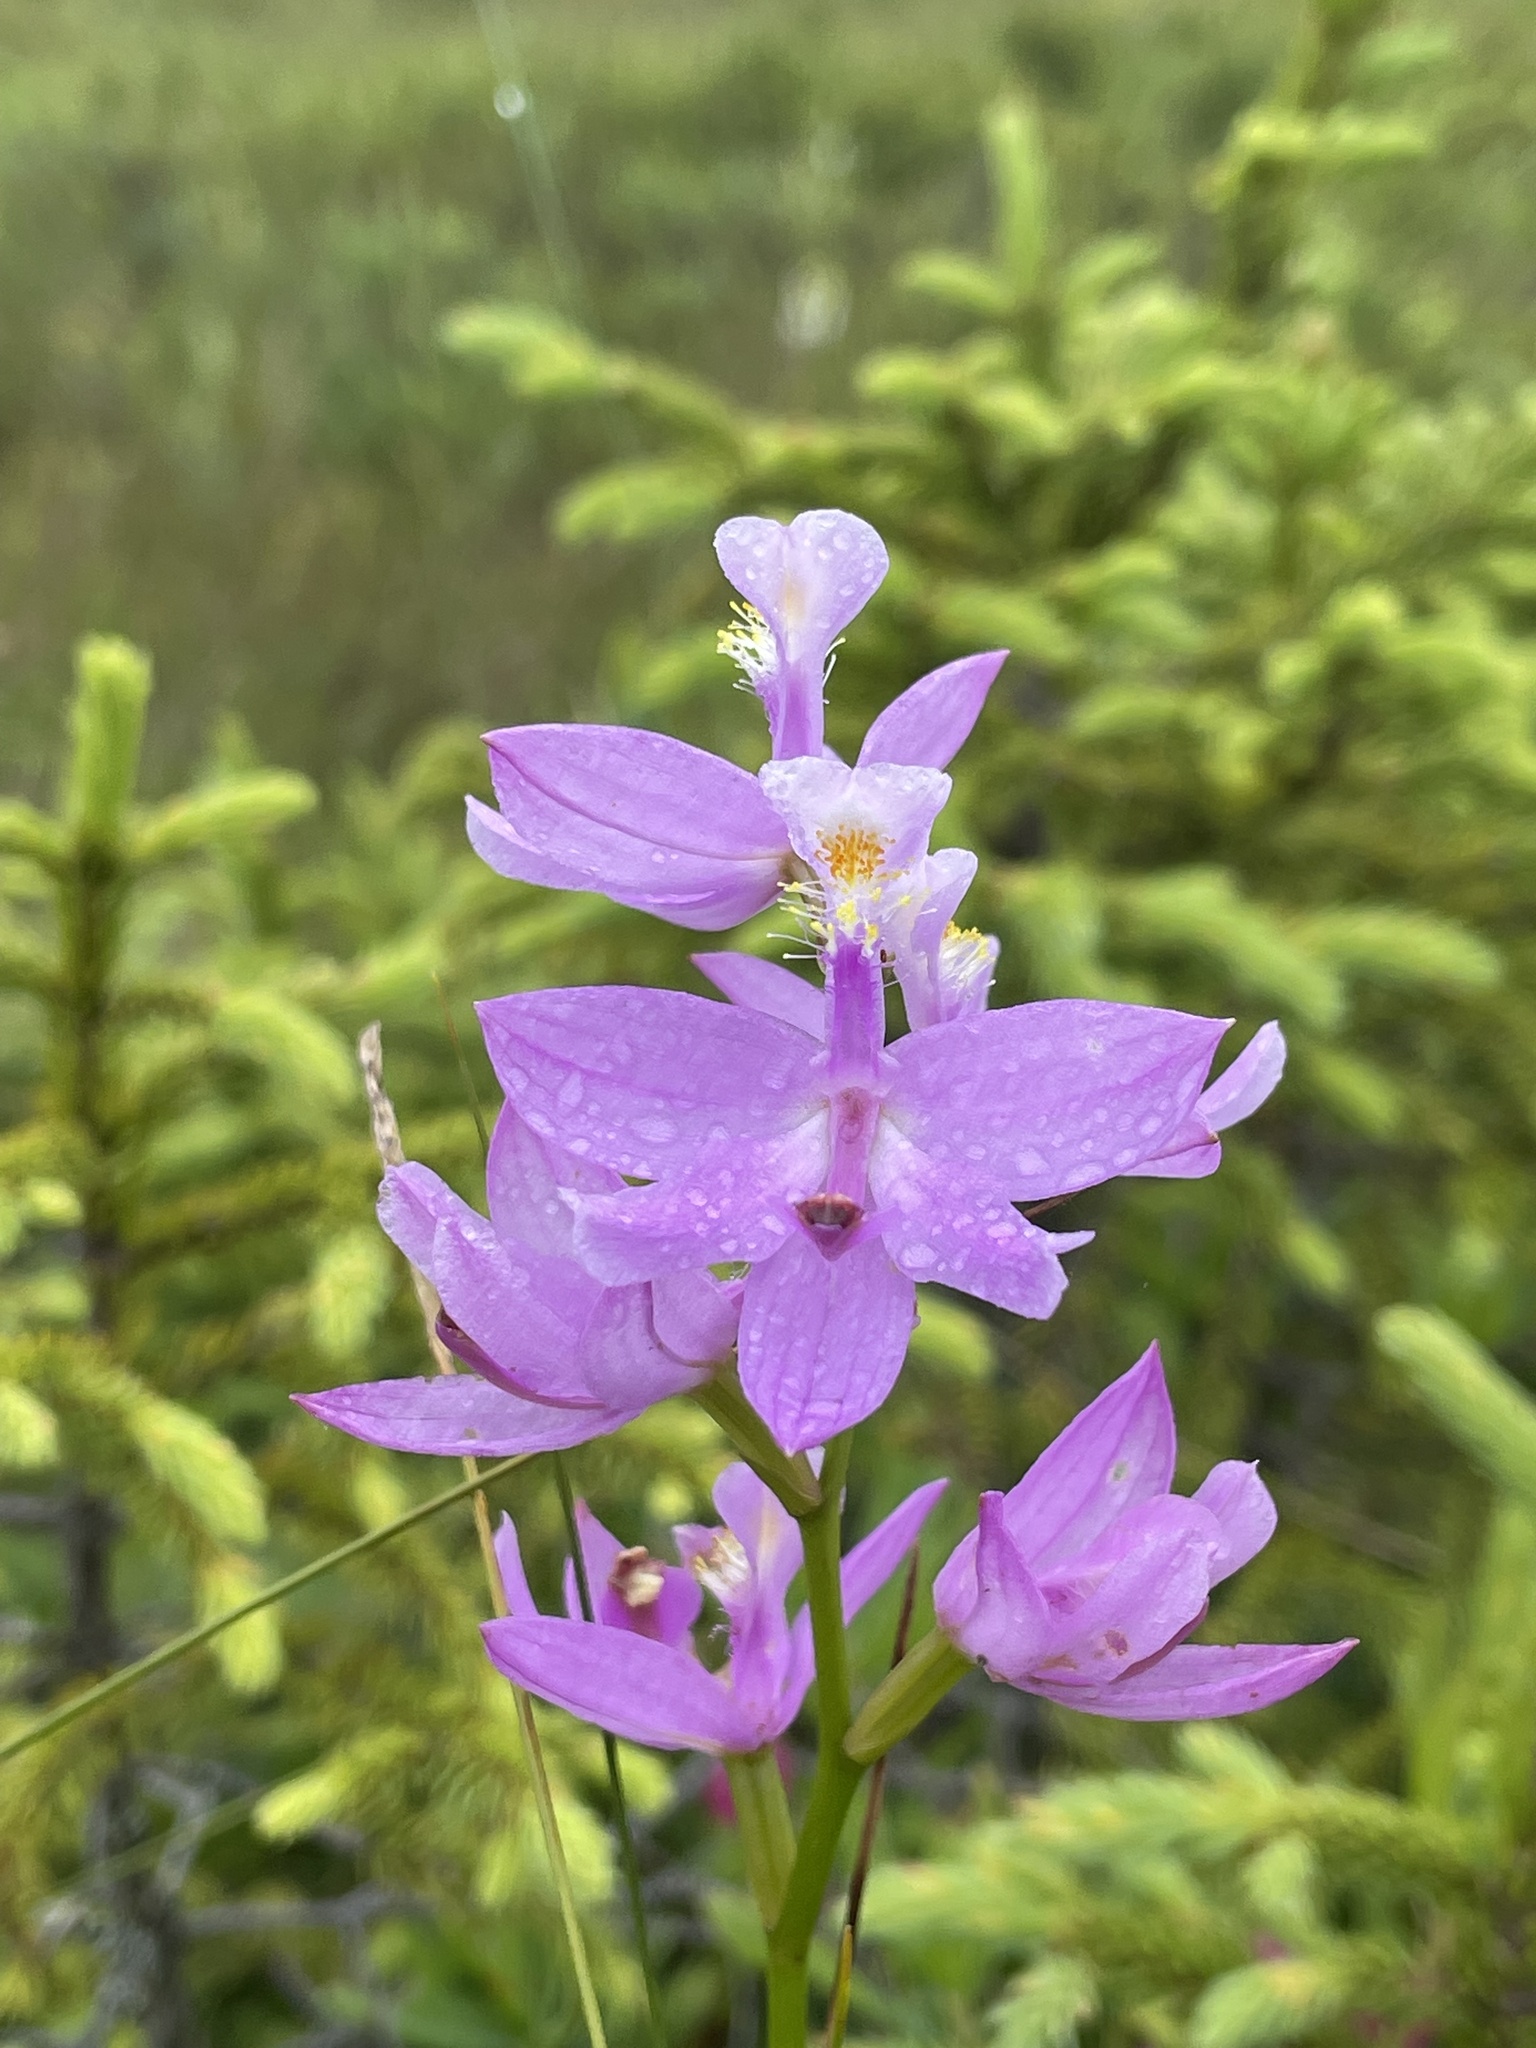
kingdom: Plantae
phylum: Tracheophyta
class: Liliopsida
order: Asparagales
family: Orchidaceae
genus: Calopogon
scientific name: Calopogon tuberosus
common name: Grass-pink
